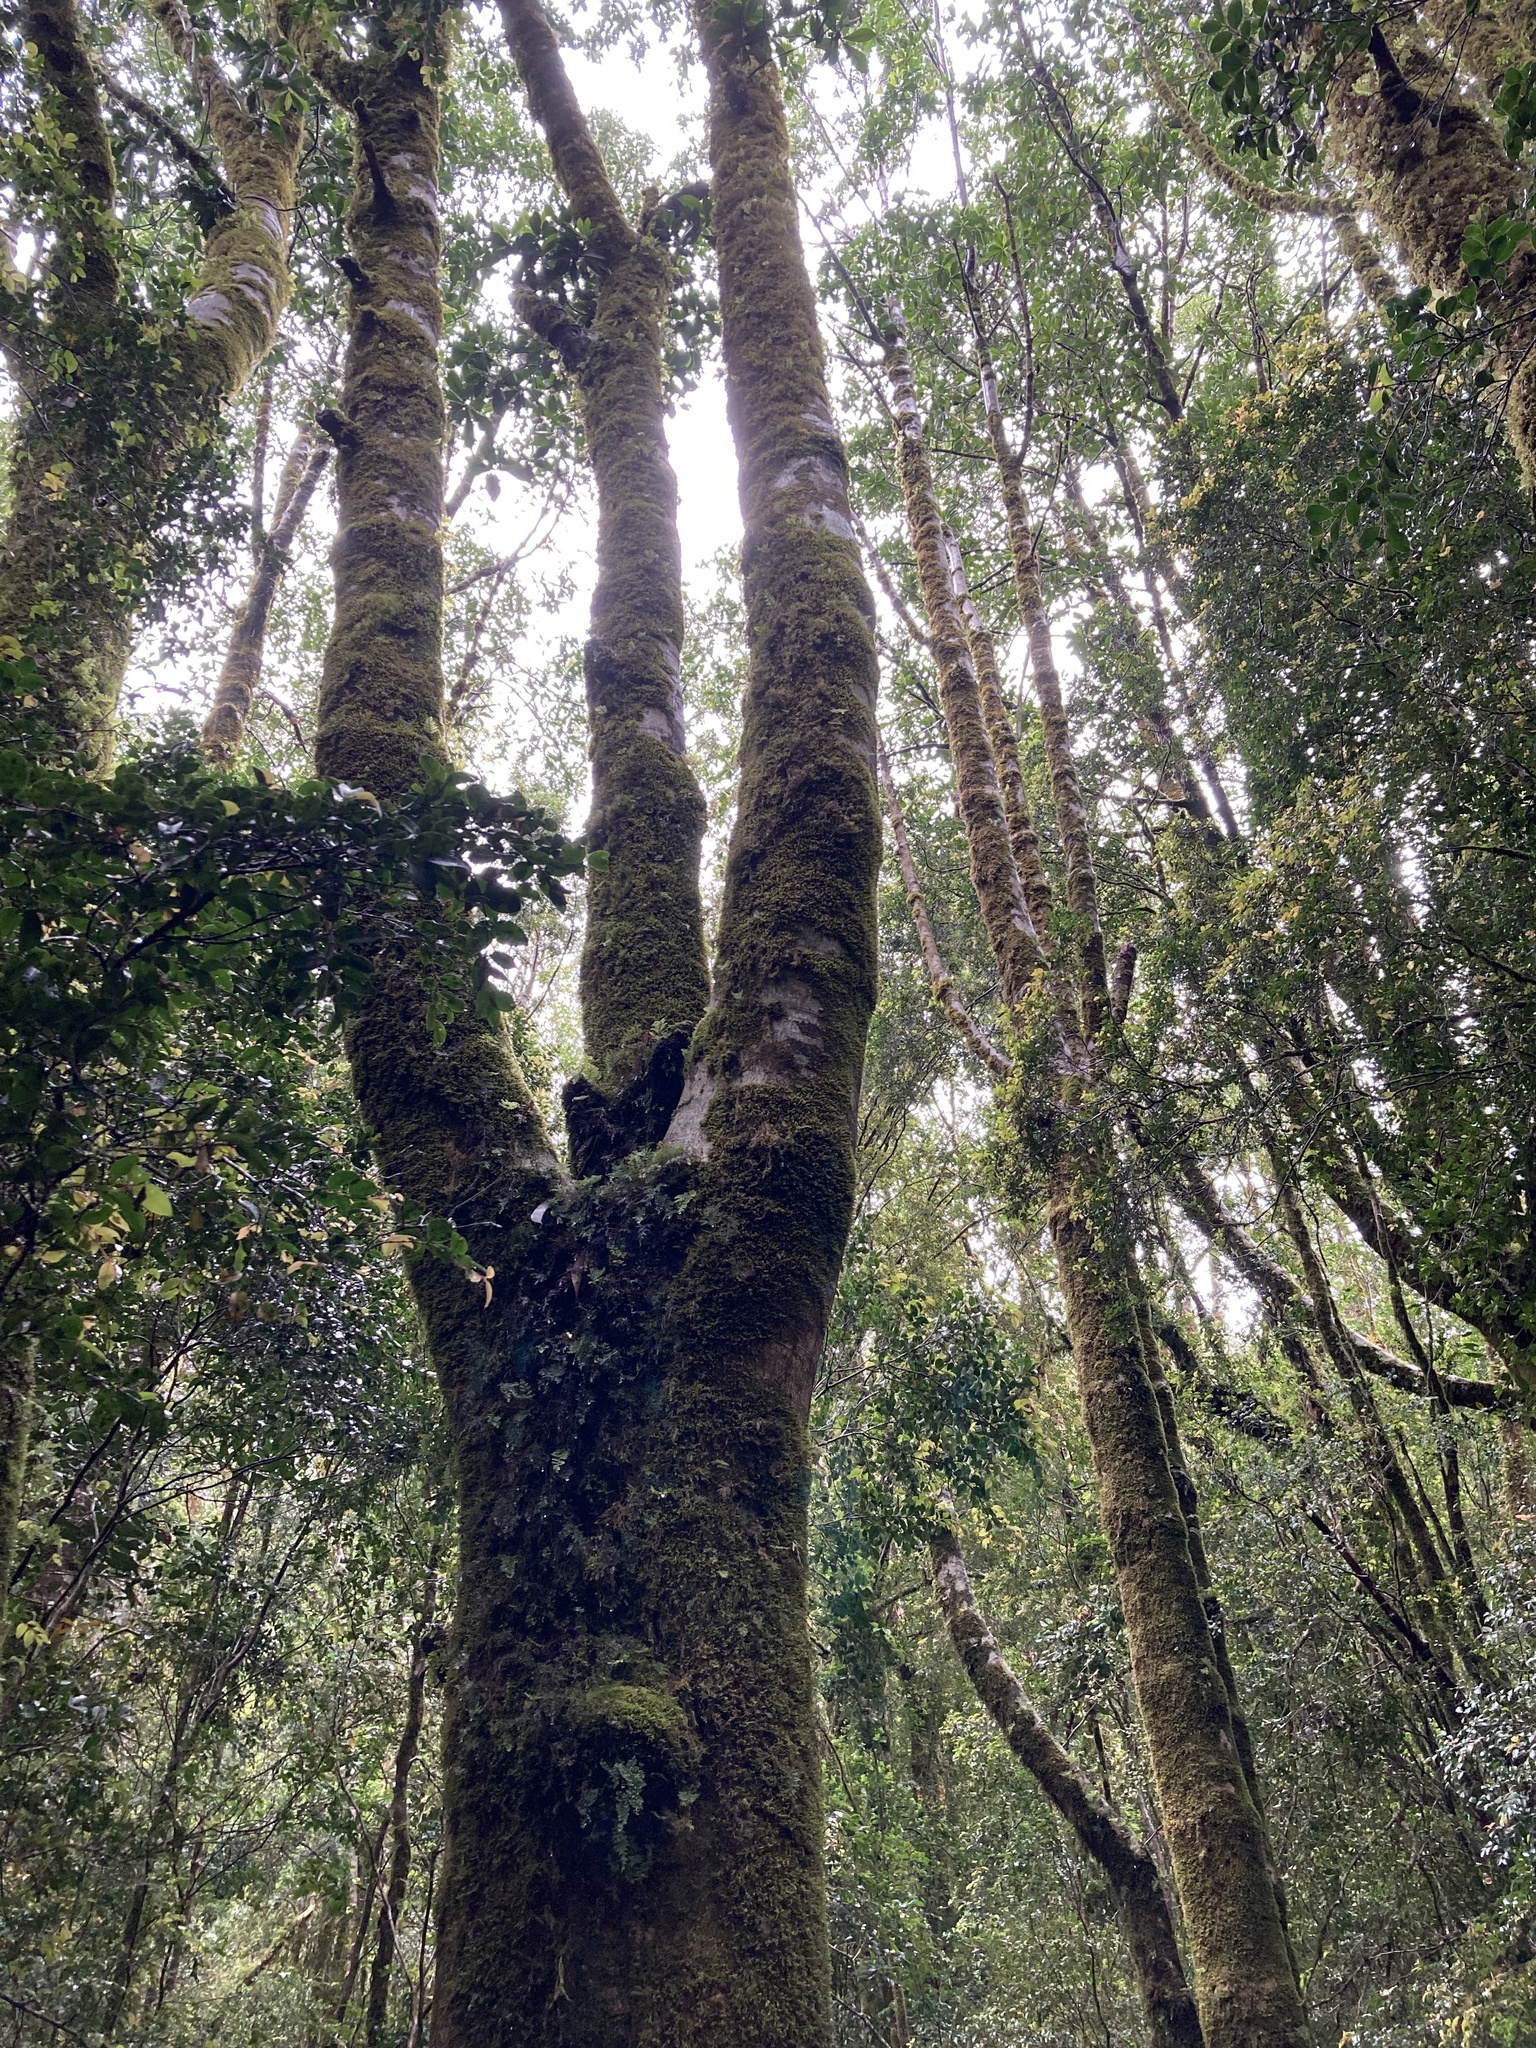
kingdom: Plantae
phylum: Tracheophyta
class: Magnoliopsida
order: Canellales
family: Winteraceae
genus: Drimys
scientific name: Drimys winteri
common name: Winter's-bark
